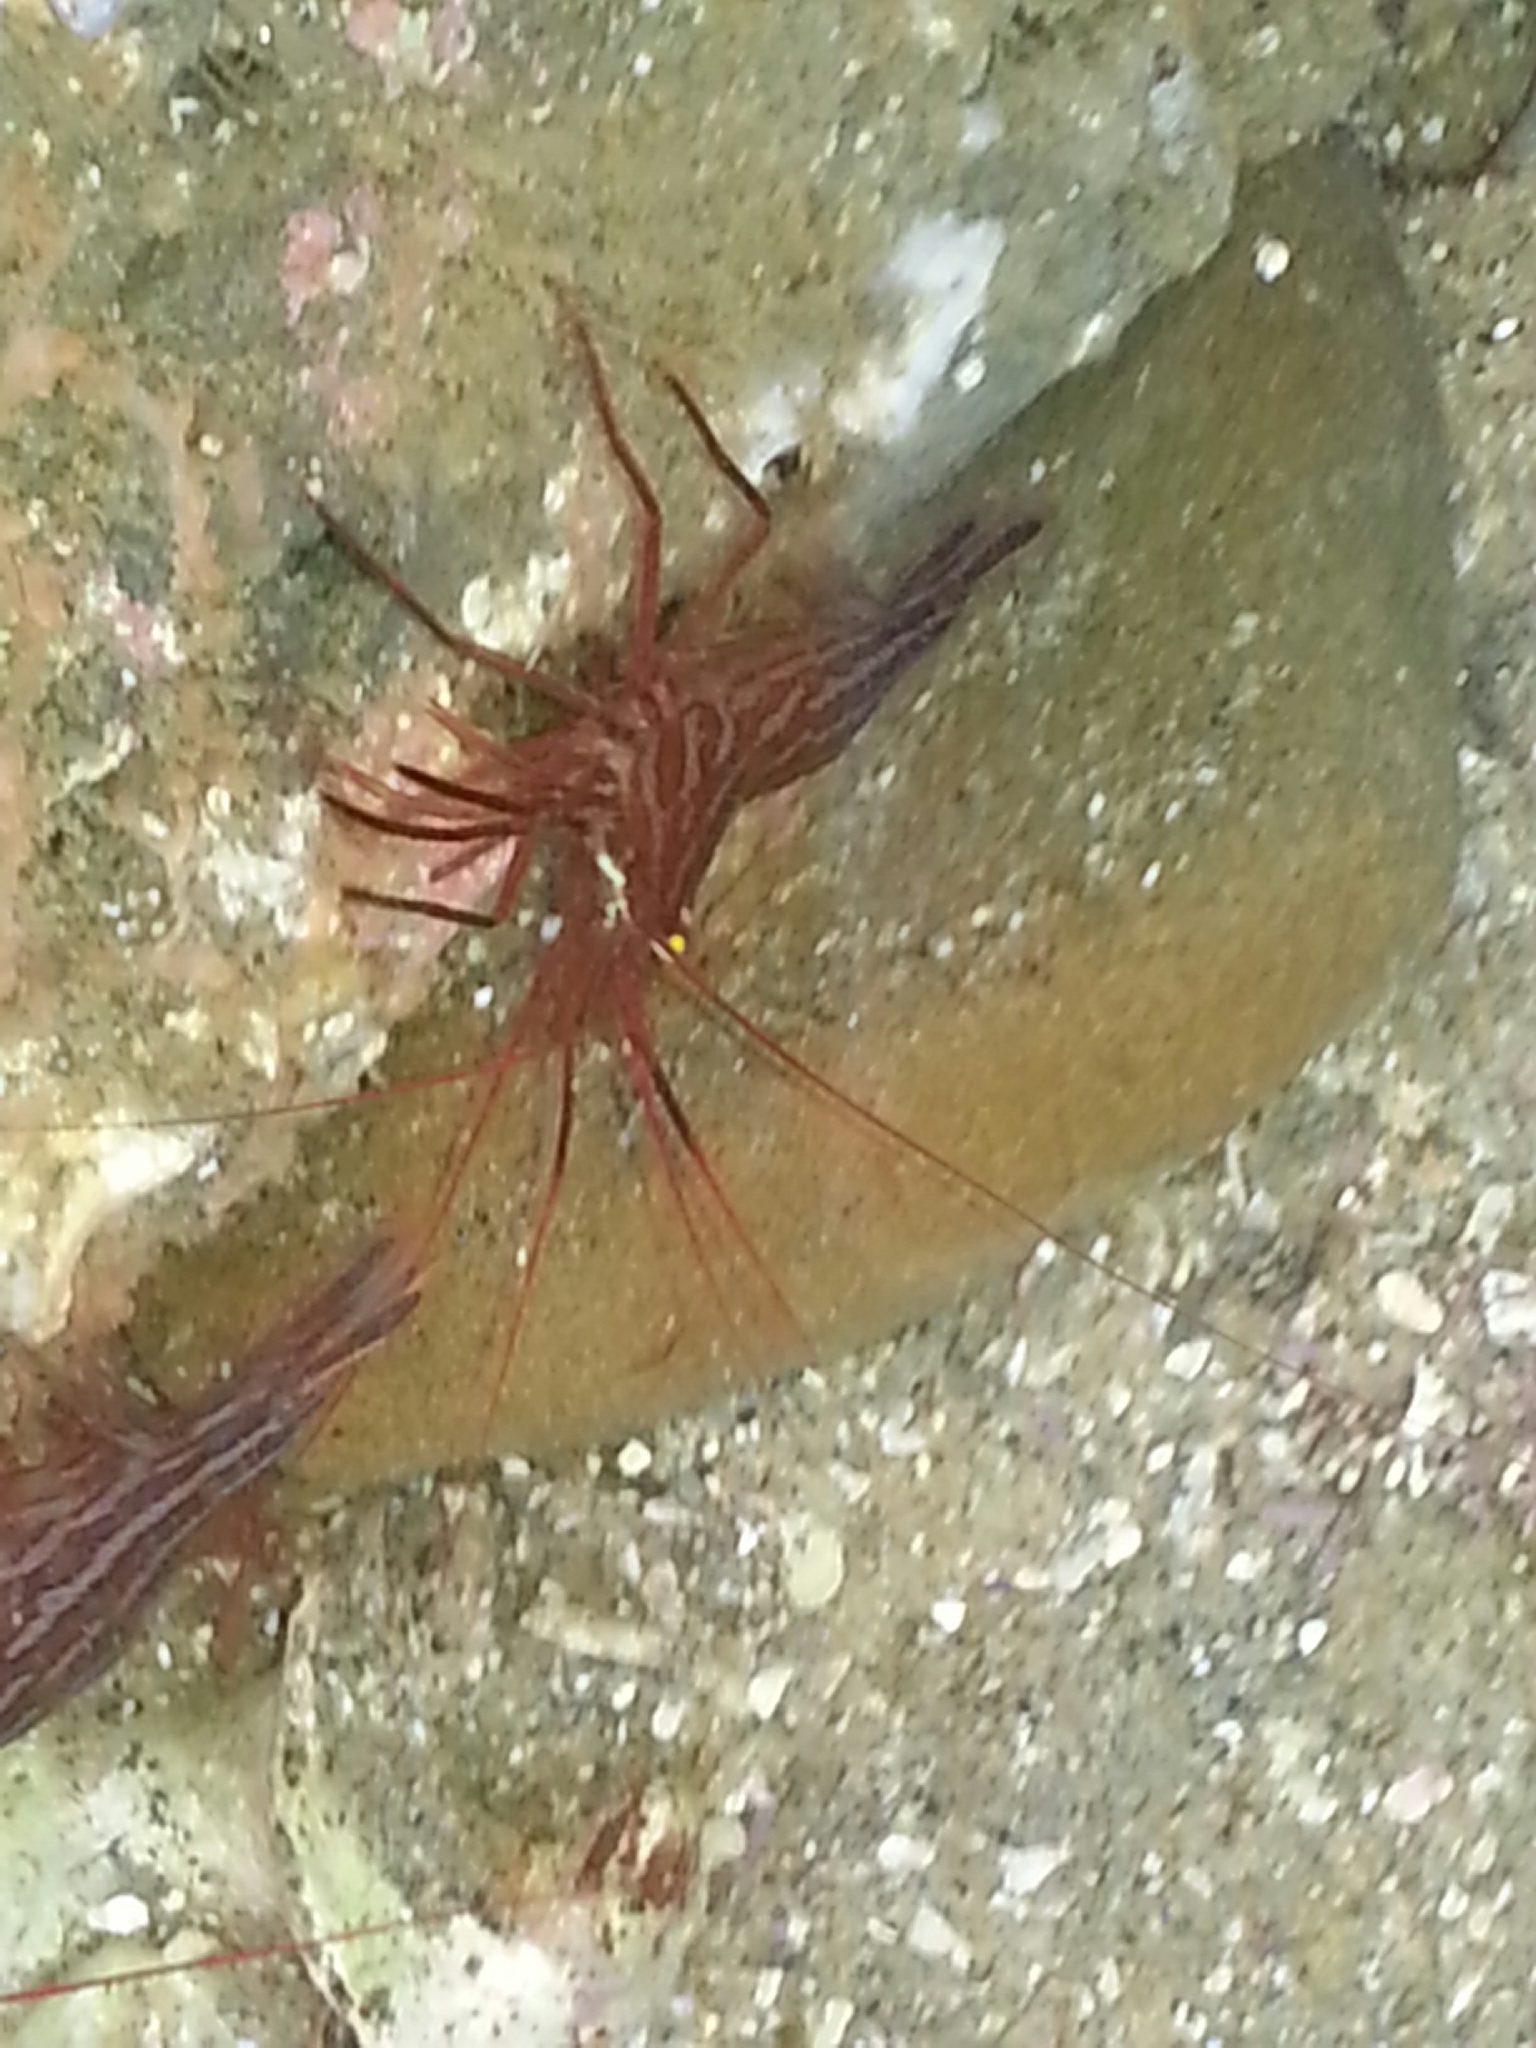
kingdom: Animalia
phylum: Arthropoda
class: Malacostraca
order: Decapoda
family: Lysmatidae
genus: Lysmata
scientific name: Lysmata californica
